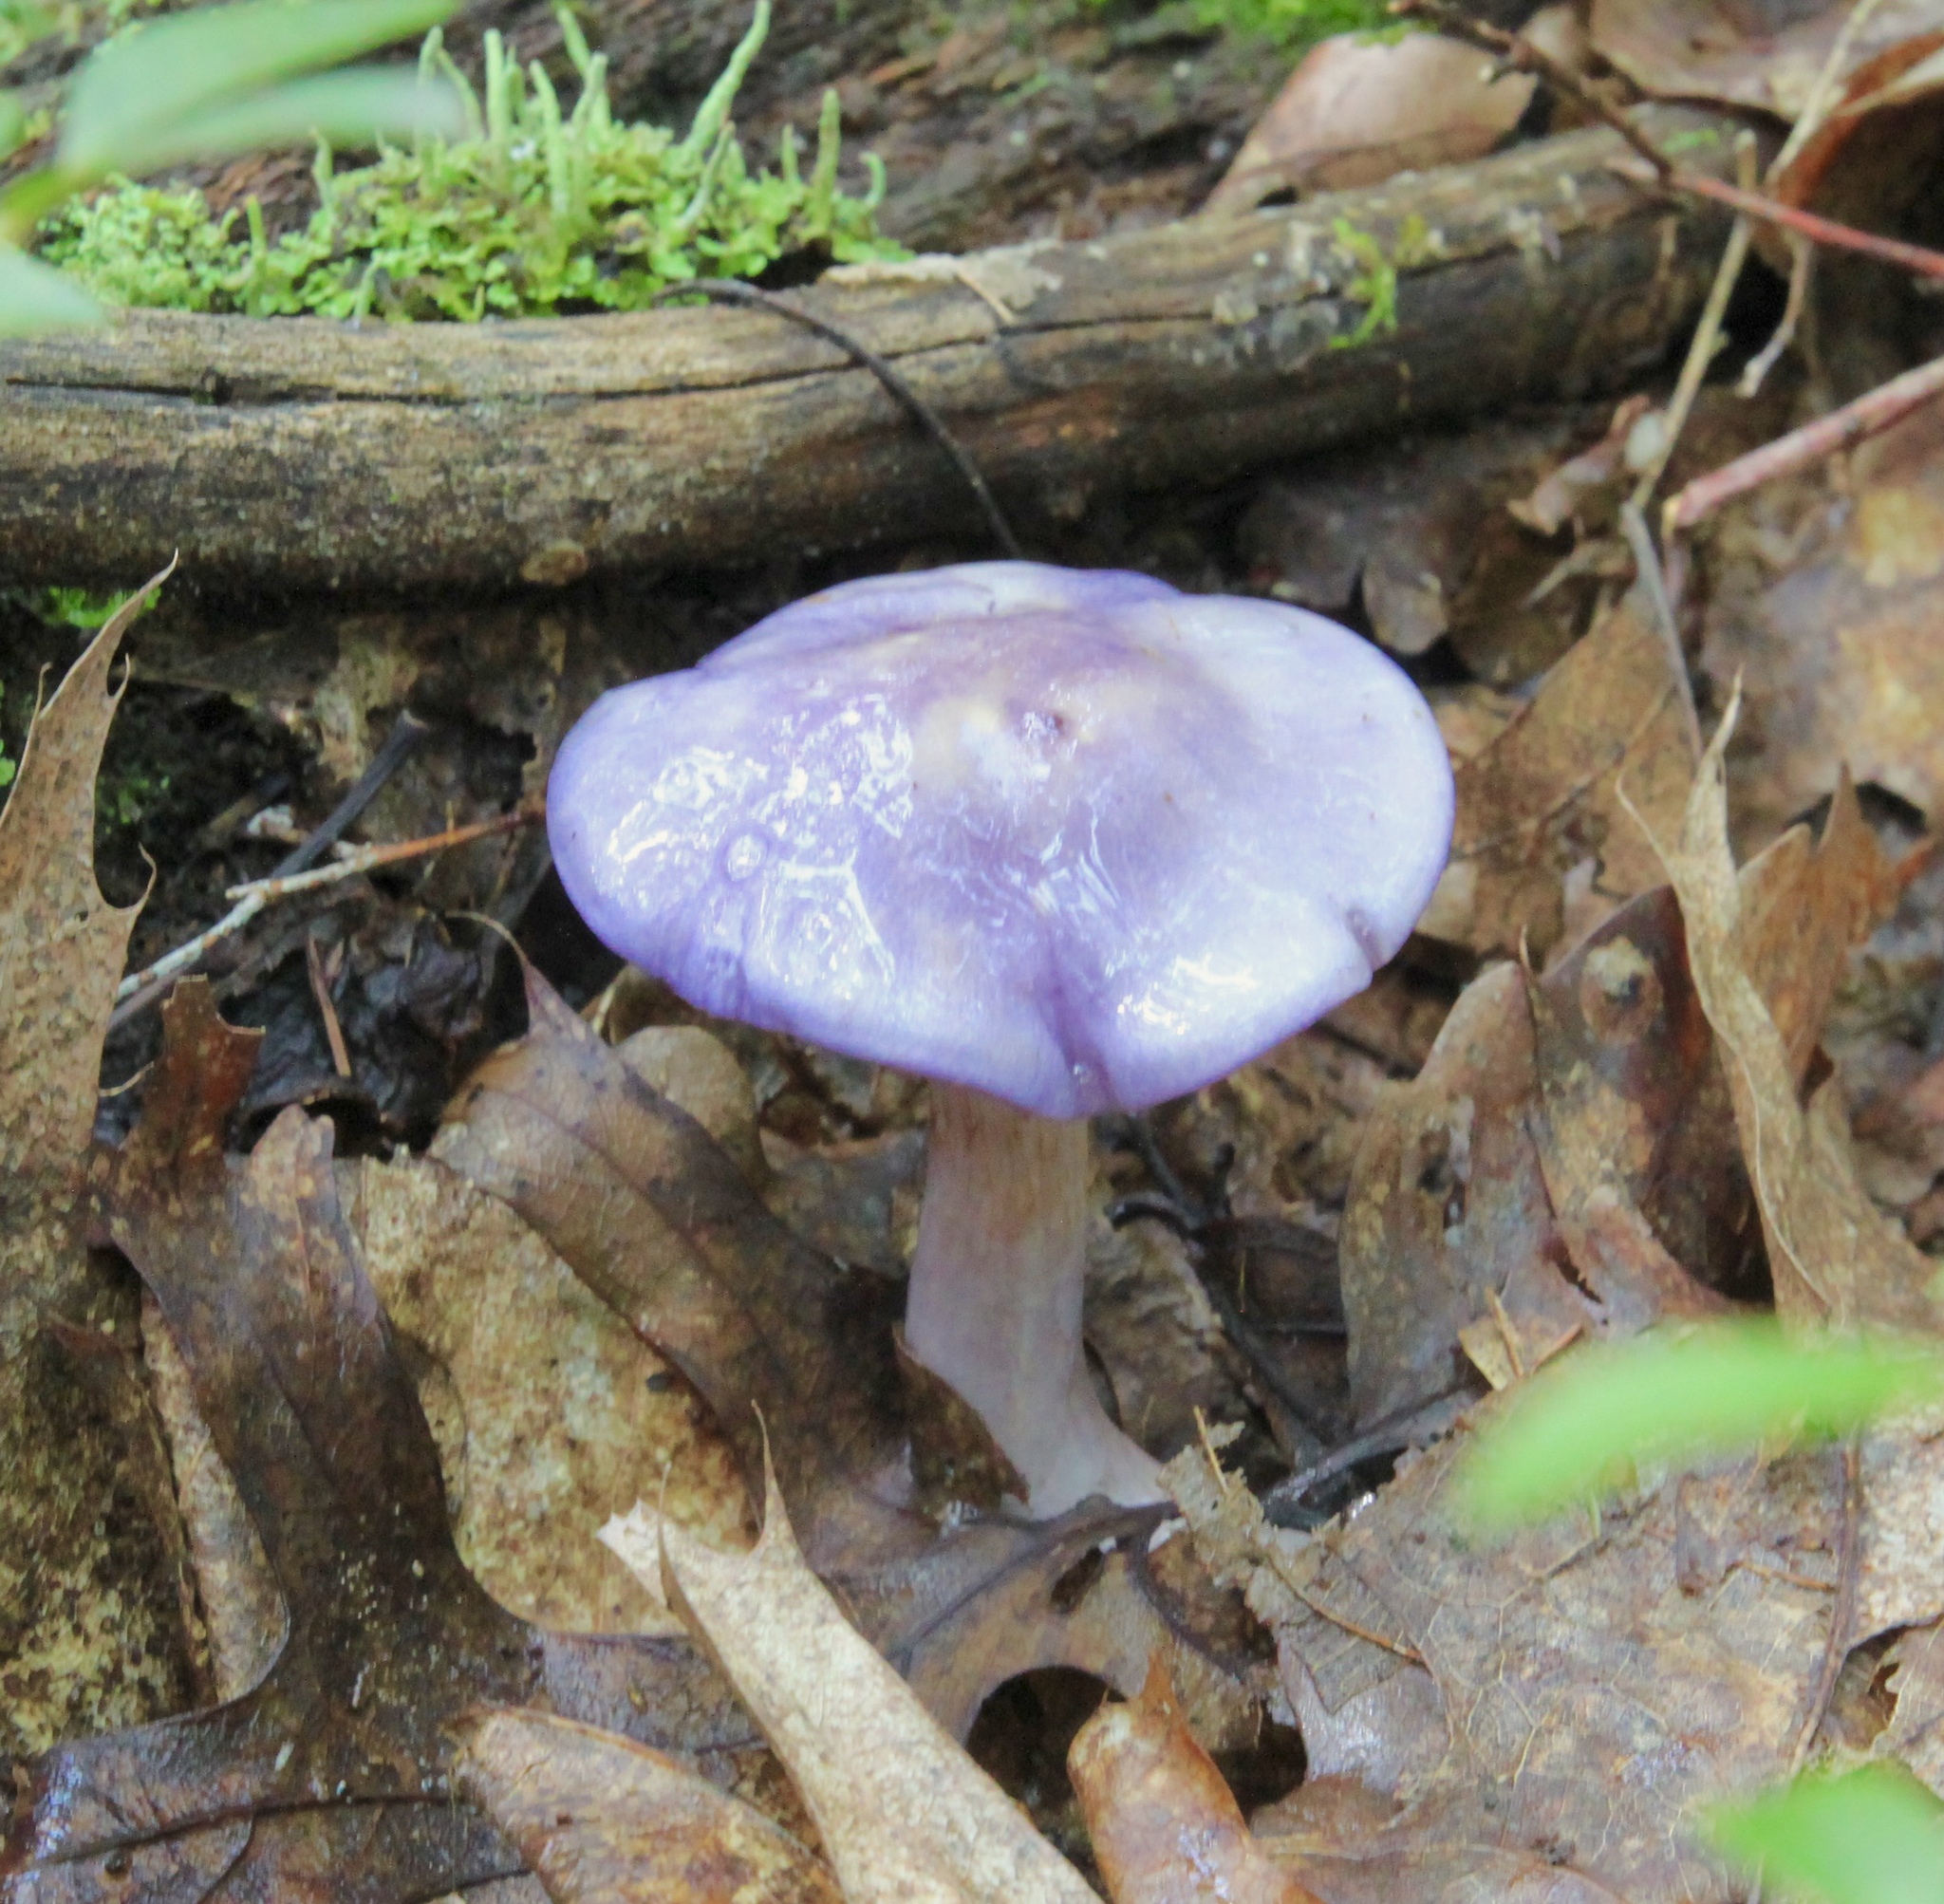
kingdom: Fungi
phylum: Basidiomycota
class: Agaricomycetes
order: Agaricales
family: Cortinariaceae
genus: Cortinarius
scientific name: Cortinarius iodes
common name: Viscid violet cort
